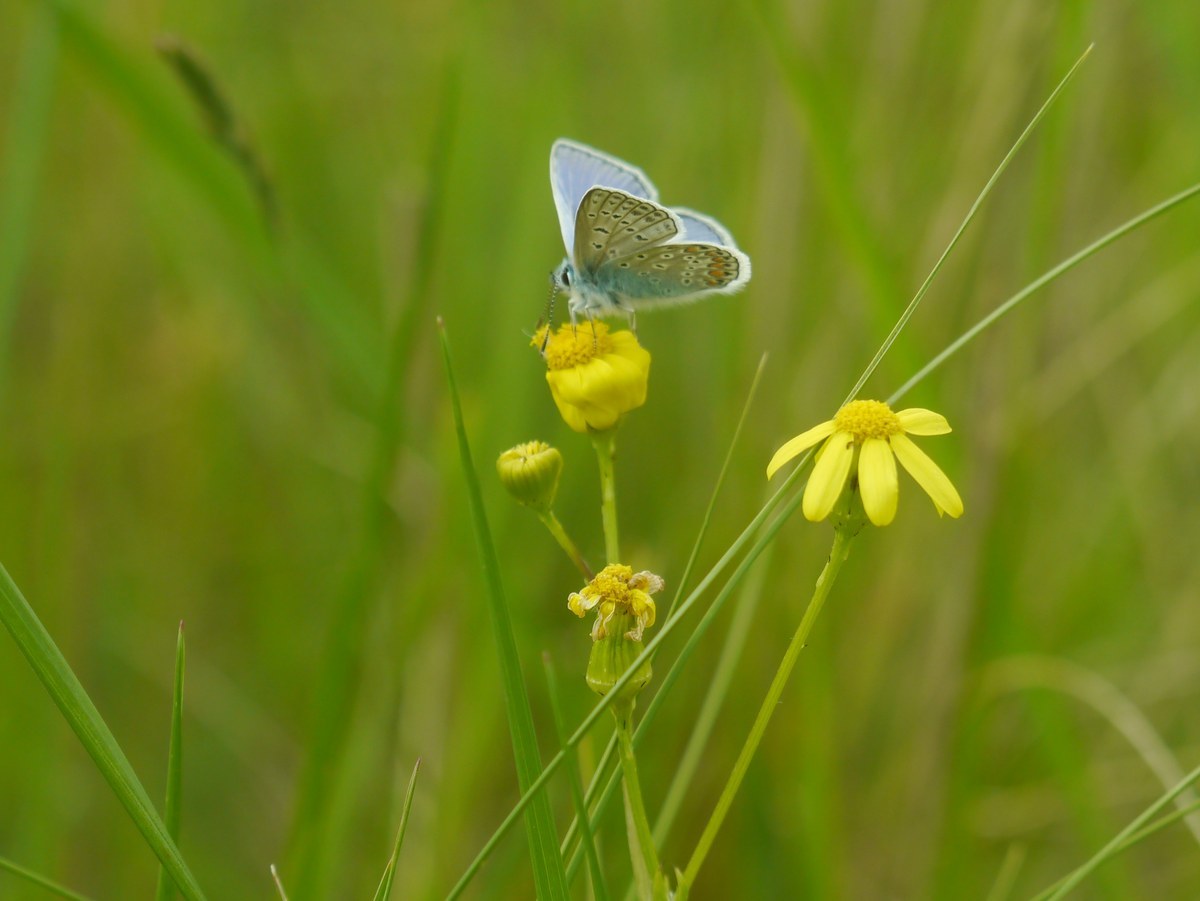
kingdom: Animalia
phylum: Arthropoda
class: Insecta
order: Lepidoptera
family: Lycaenidae
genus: Polyommatus
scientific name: Polyommatus icarus
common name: Common blue
